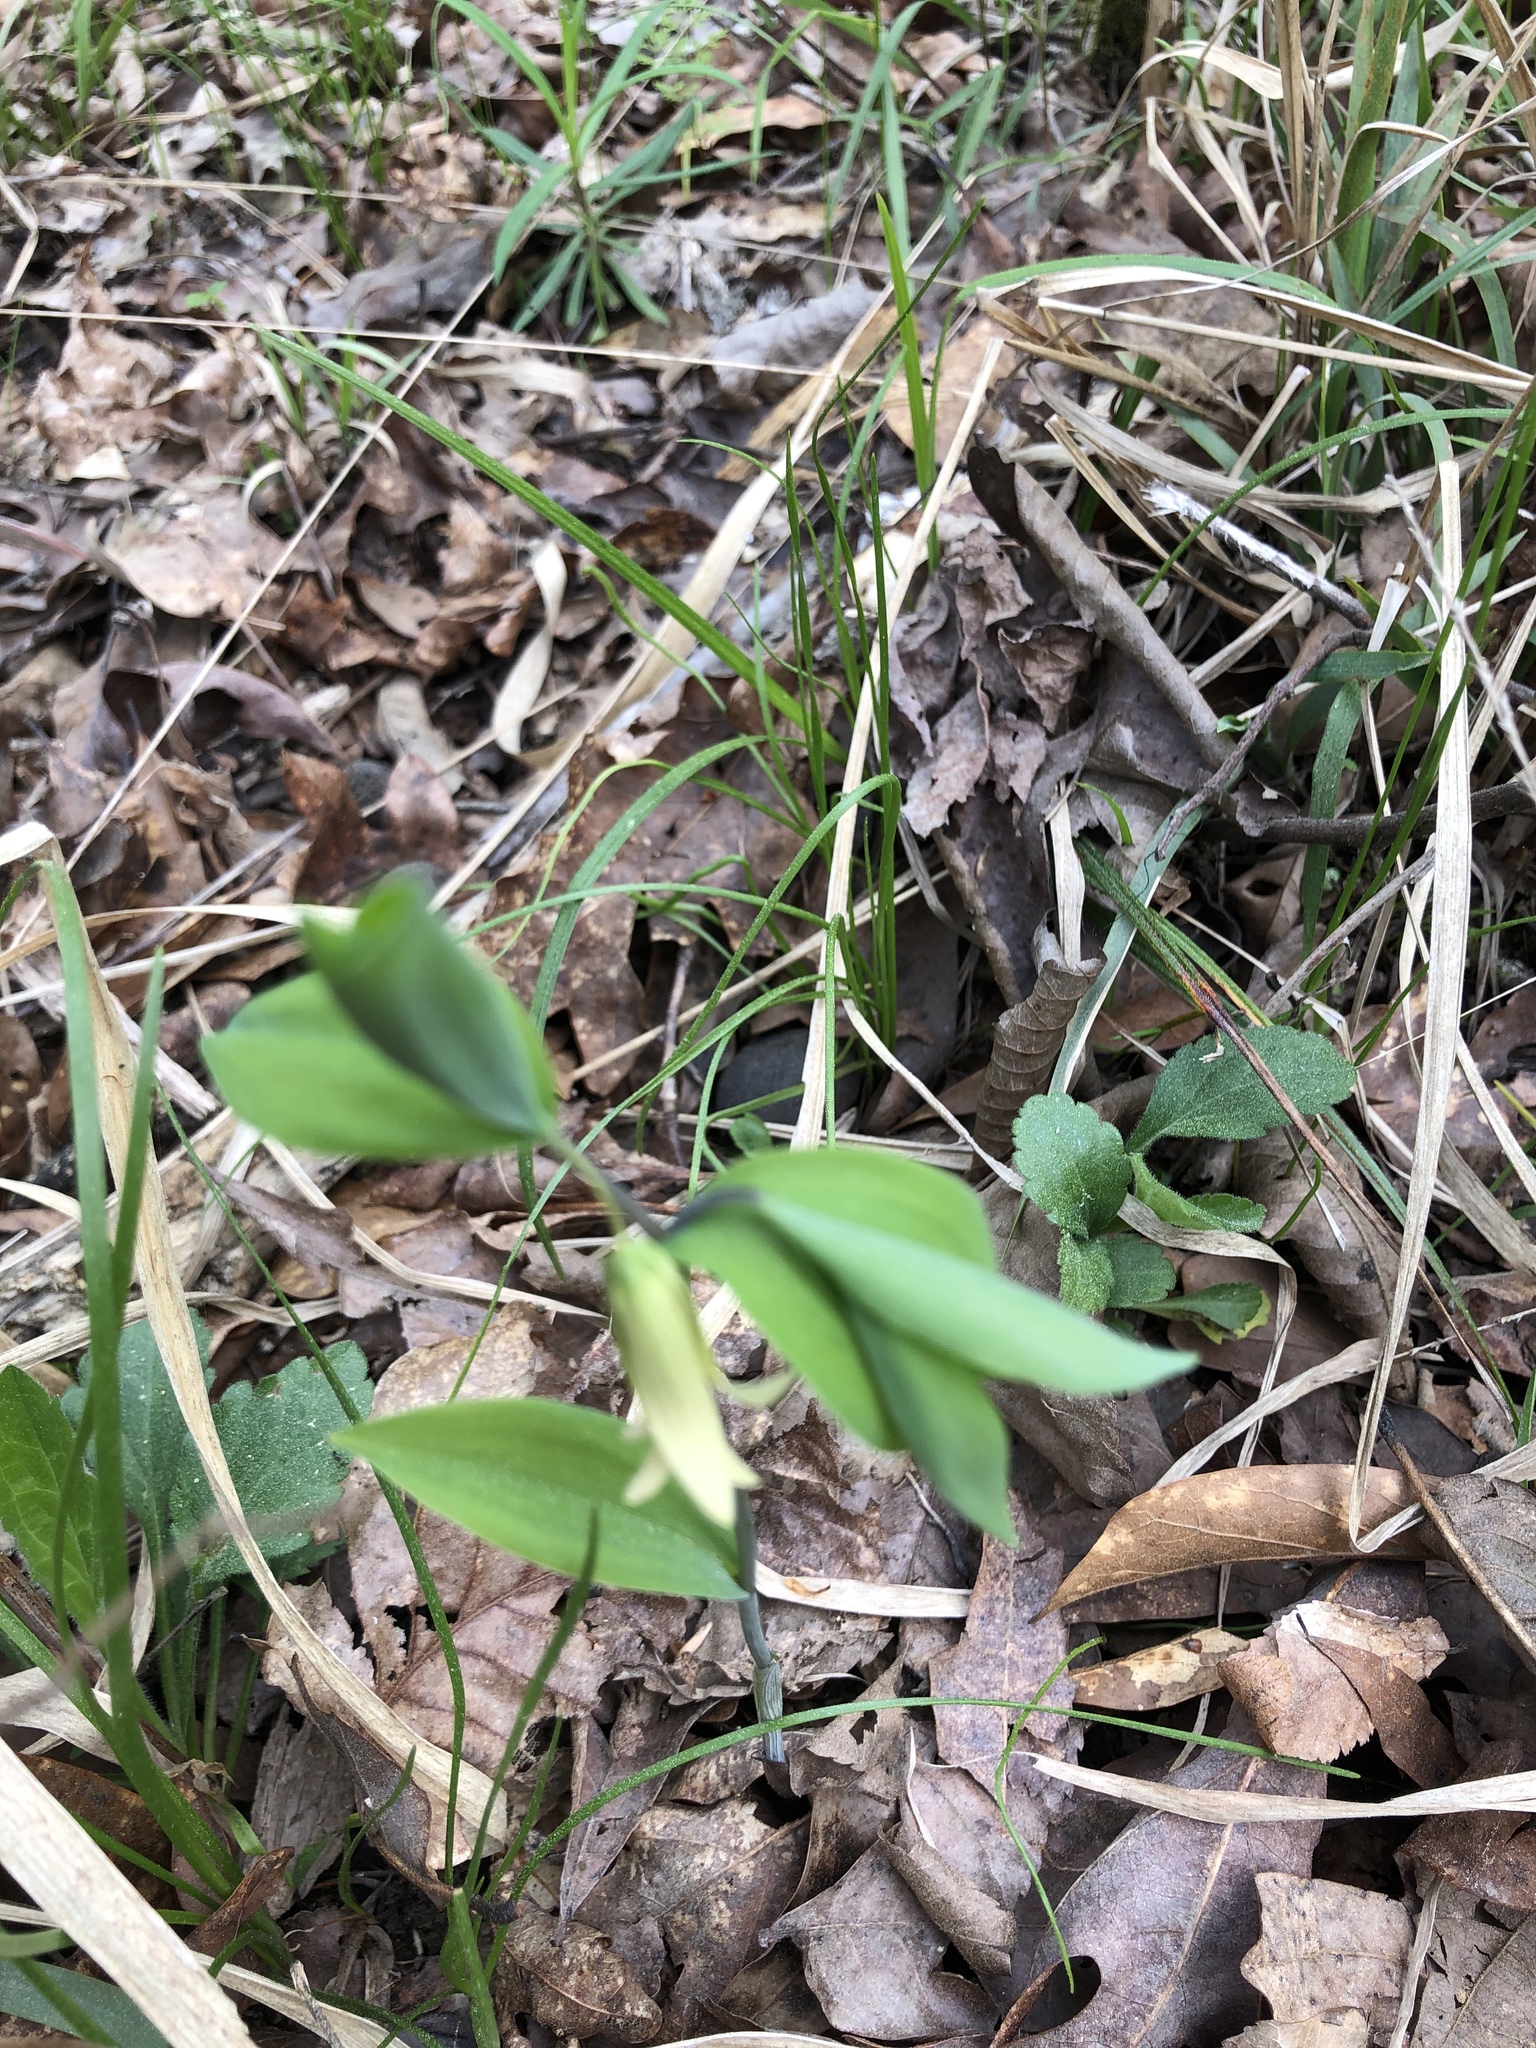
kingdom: Plantae
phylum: Tracheophyta
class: Liliopsida
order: Liliales
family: Colchicaceae
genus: Uvularia
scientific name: Uvularia sessilifolia
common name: Straw-lily
